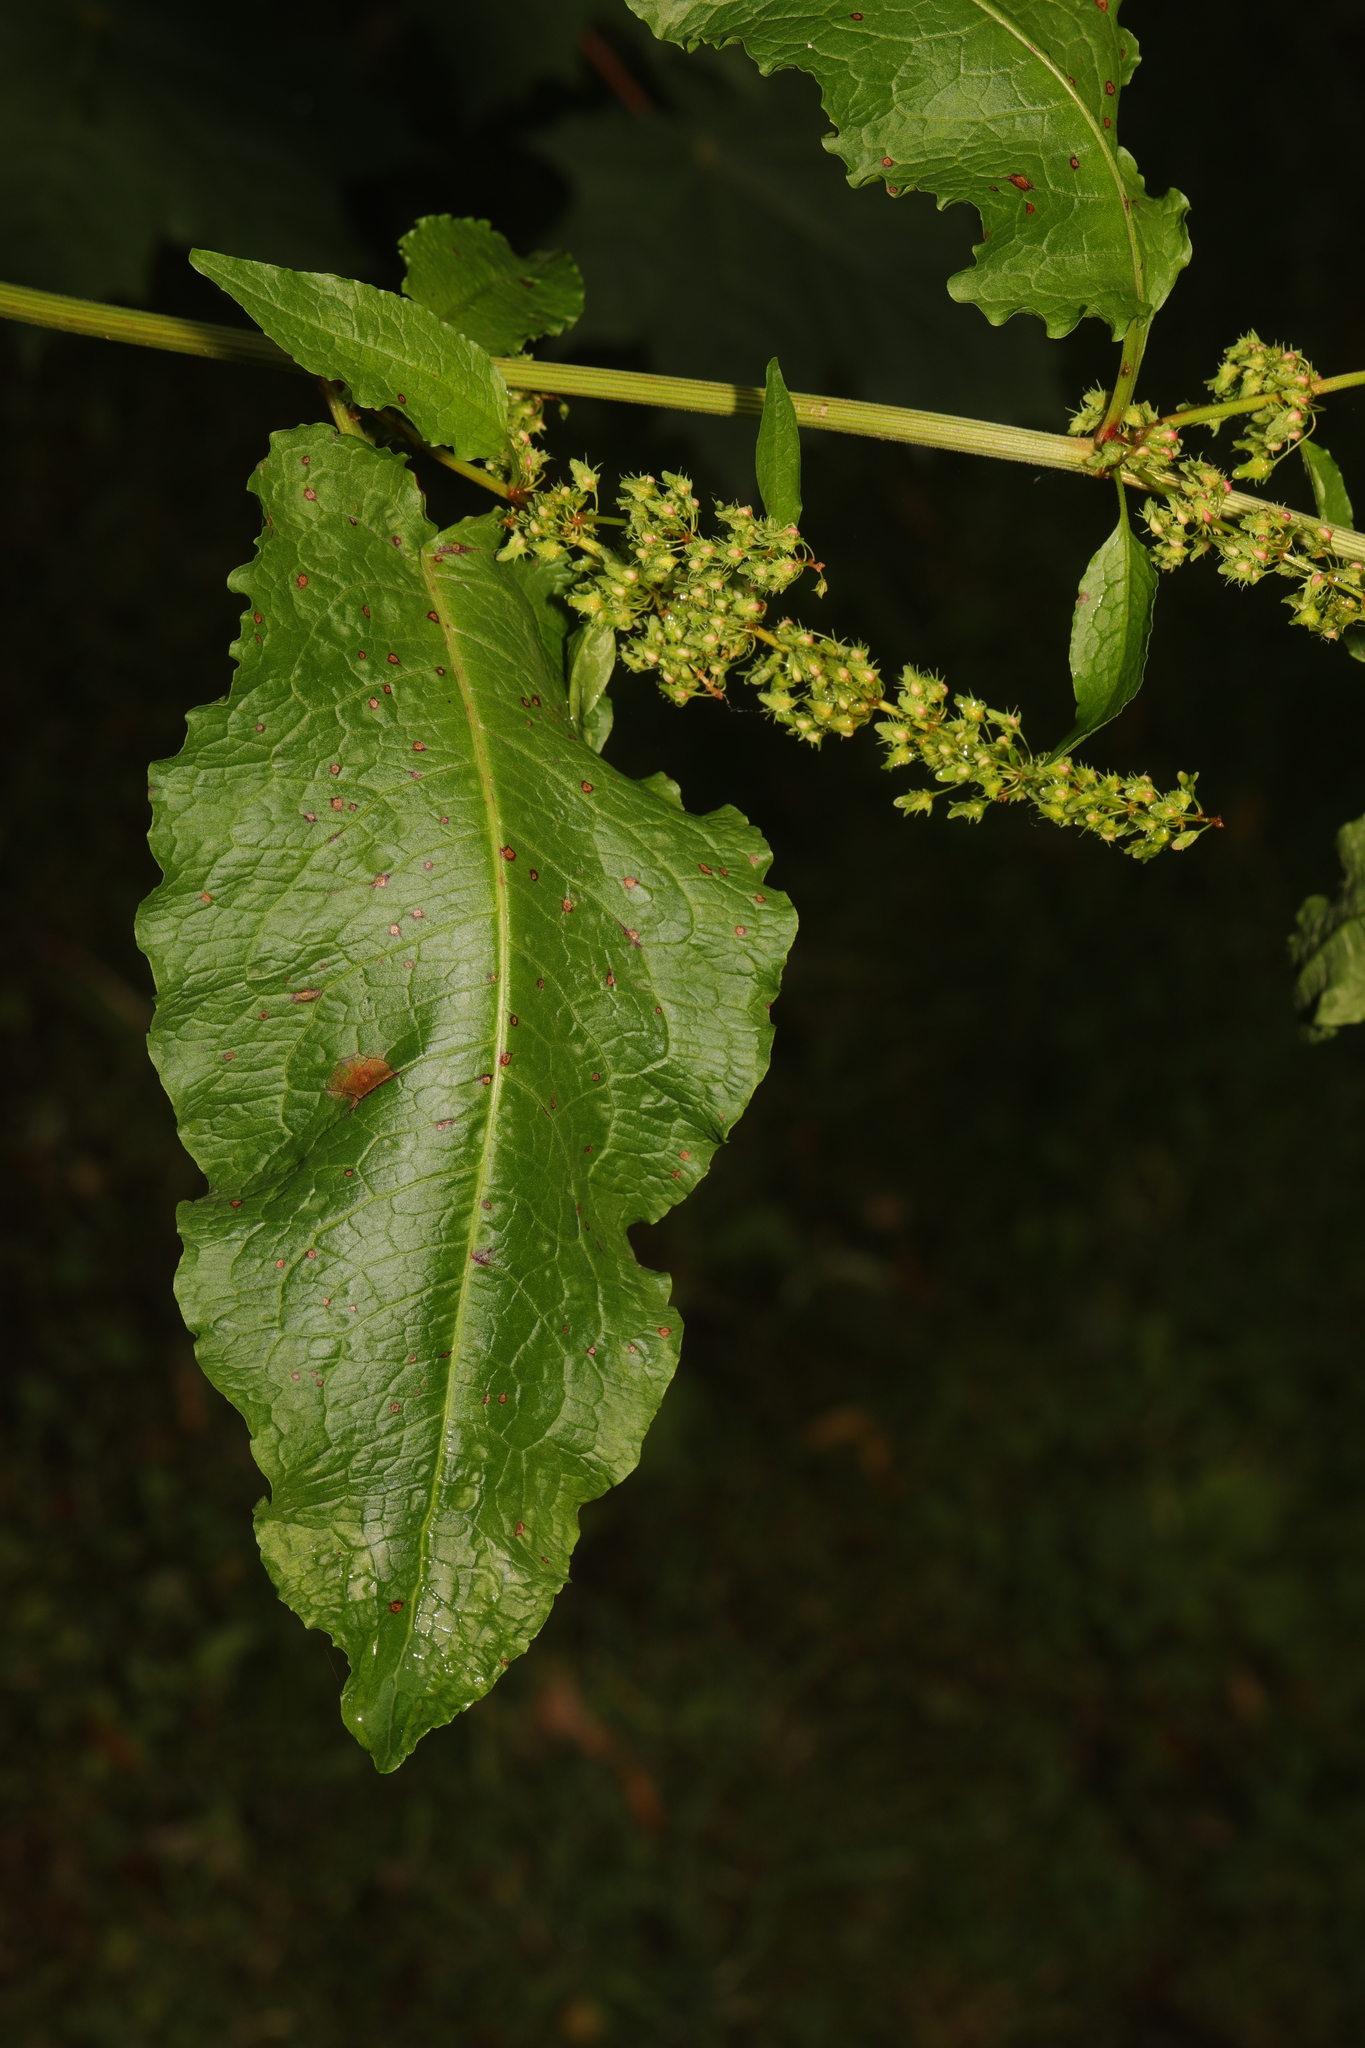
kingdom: Plantae
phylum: Tracheophyta
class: Magnoliopsida
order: Caryophyllales
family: Polygonaceae
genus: Rumex
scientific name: Rumex obtusifolius
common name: Bitter dock
